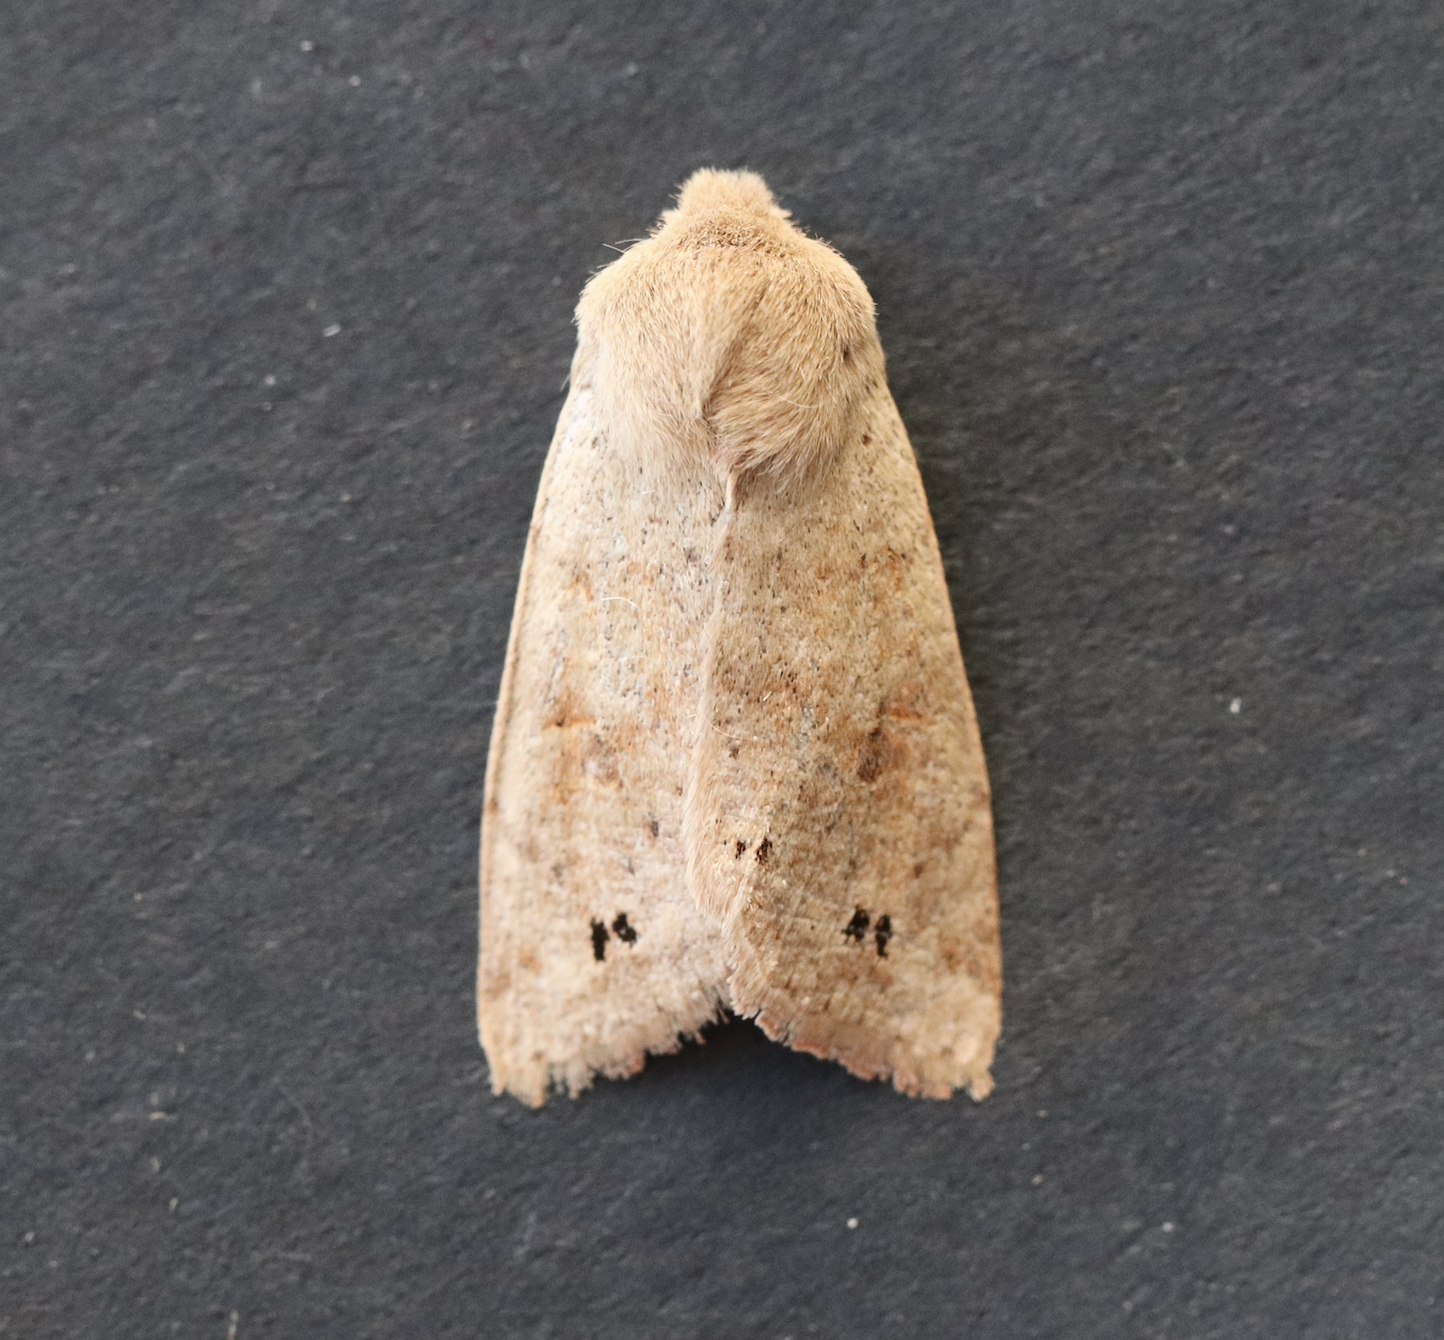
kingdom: Animalia
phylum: Arthropoda
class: Insecta
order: Lepidoptera
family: Noctuidae
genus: Anorthoa
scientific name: Anorthoa munda
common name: Twin-spotted quaker
